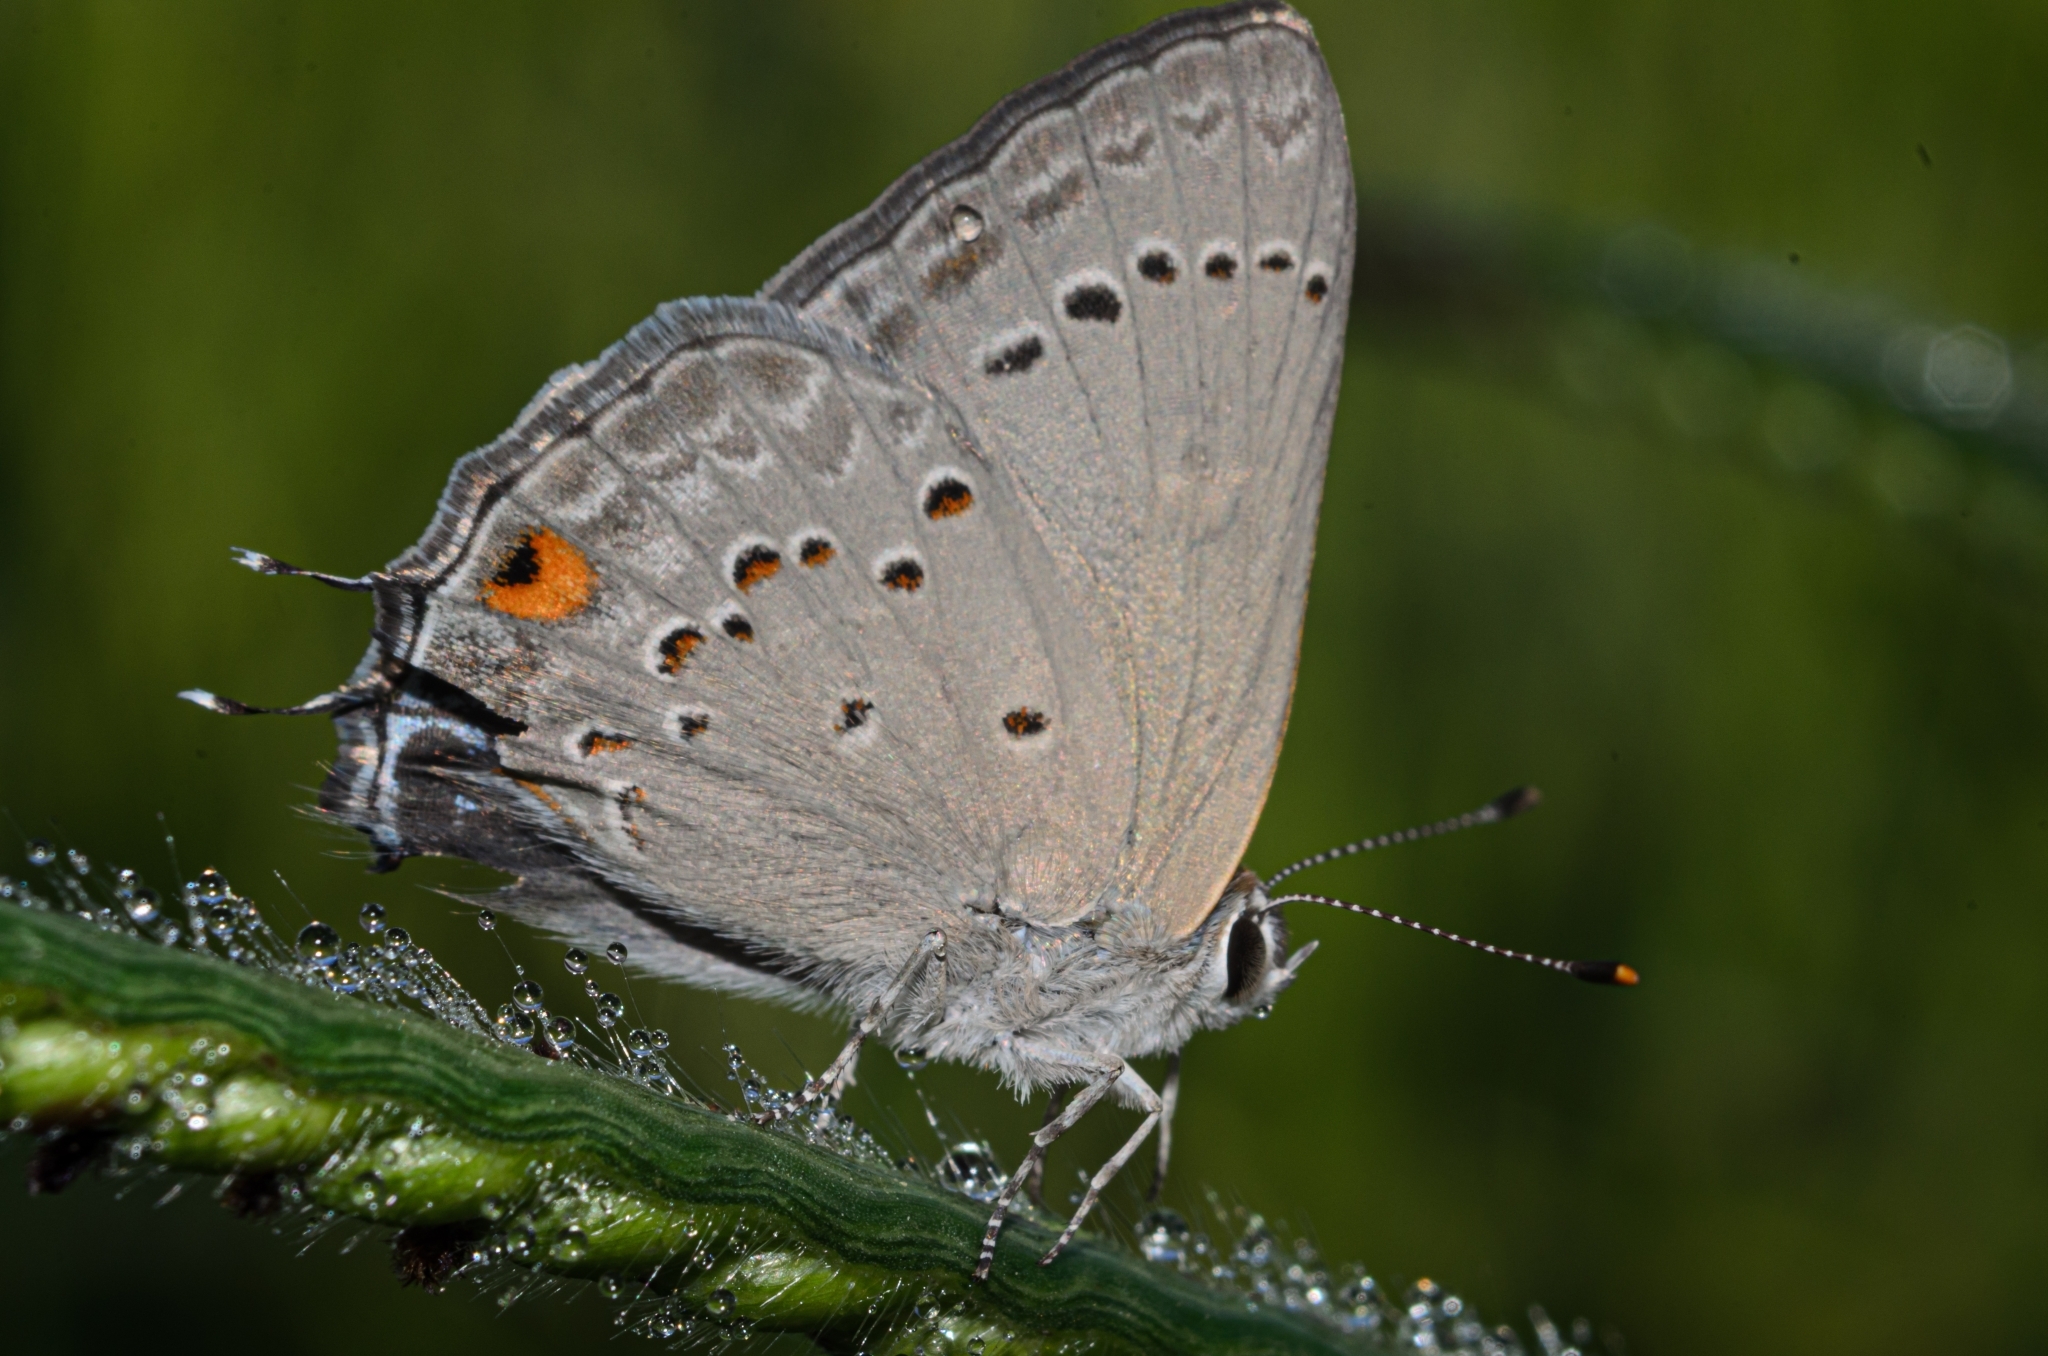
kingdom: Animalia
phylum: Arthropoda
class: Insecta
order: Lepidoptera
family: Lycaenidae
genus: Strymon
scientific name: Strymon eurytulus
